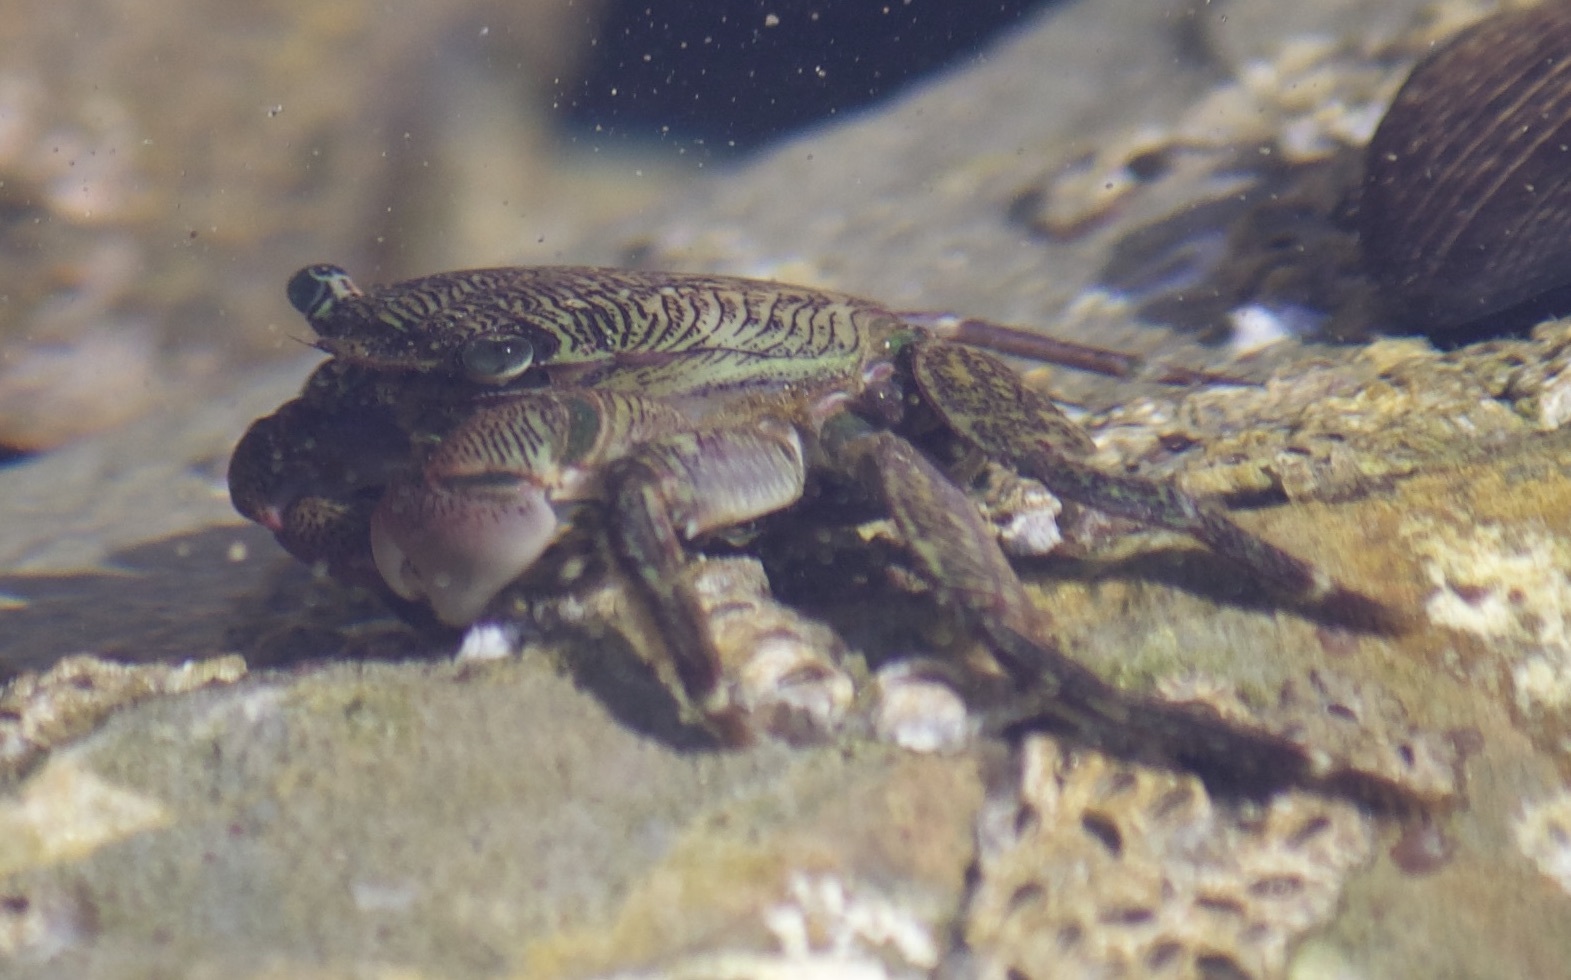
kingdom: Animalia
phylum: Arthropoda
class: Malacostraca
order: Decapoda
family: Grapsidae
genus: Pachygrapsus
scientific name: Pachygrapsus crassipes
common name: Striped shore crab
